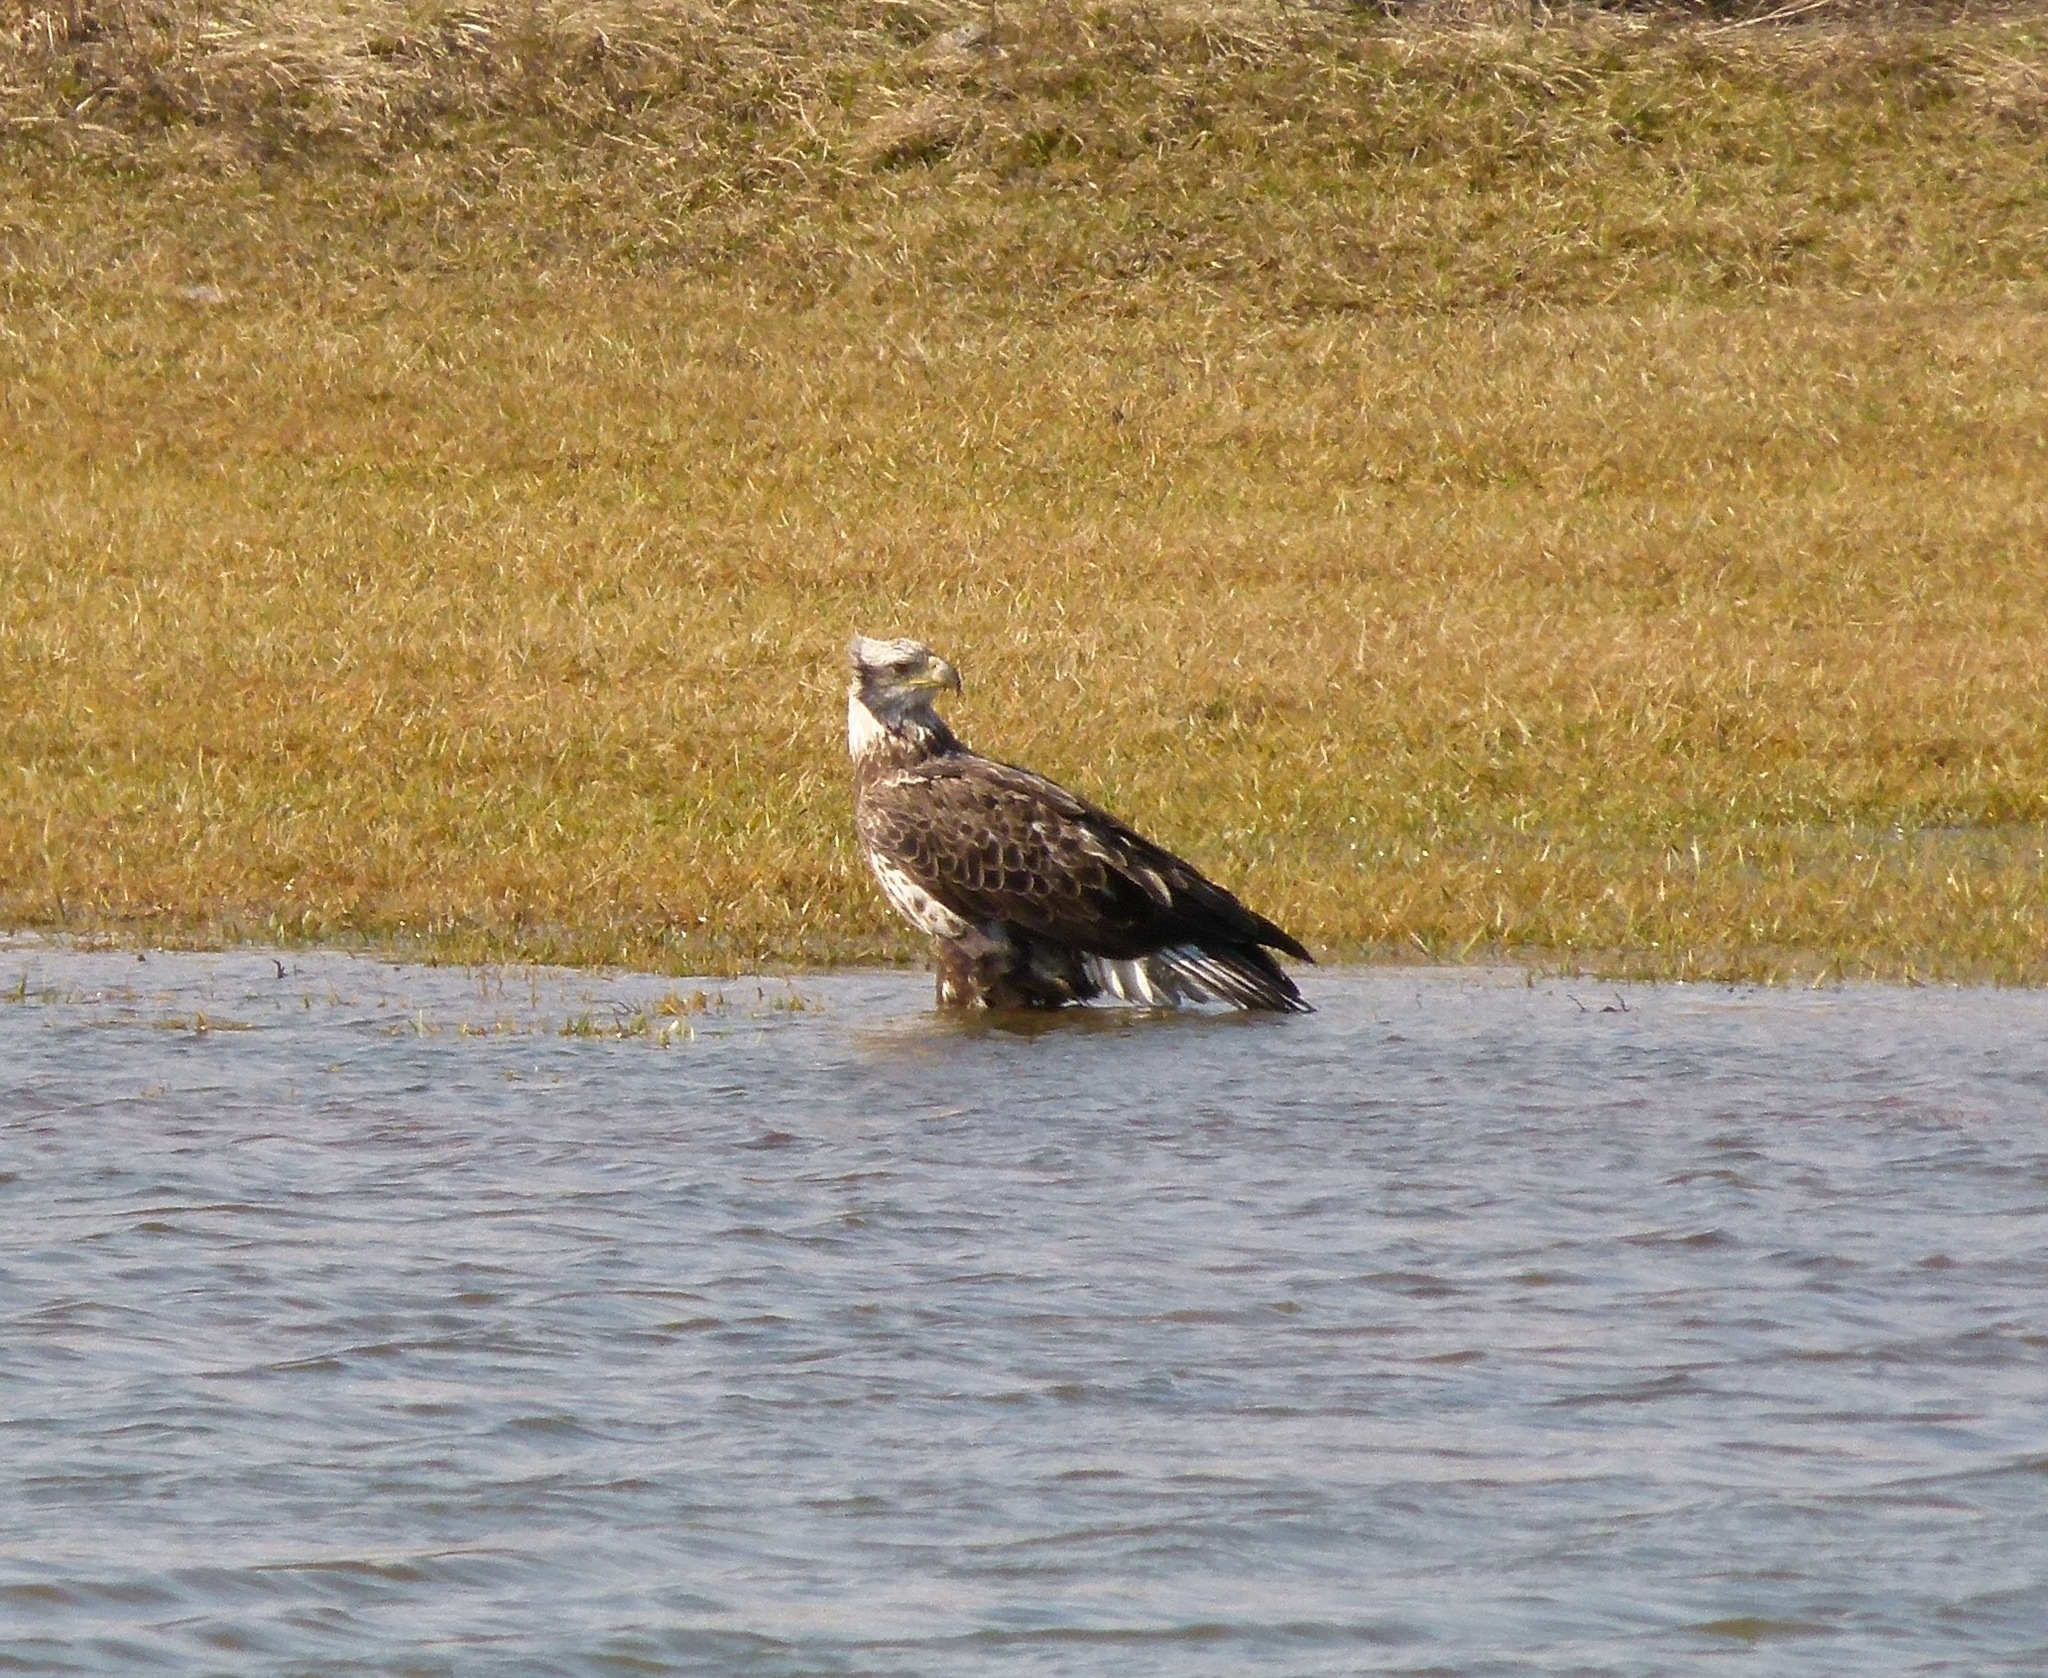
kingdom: Animalia
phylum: Chordata
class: Aves
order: Accipitriformes
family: Accipitridae
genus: Haliaeetus
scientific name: Haliaeetus leucocephalus
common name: Bald eagle
